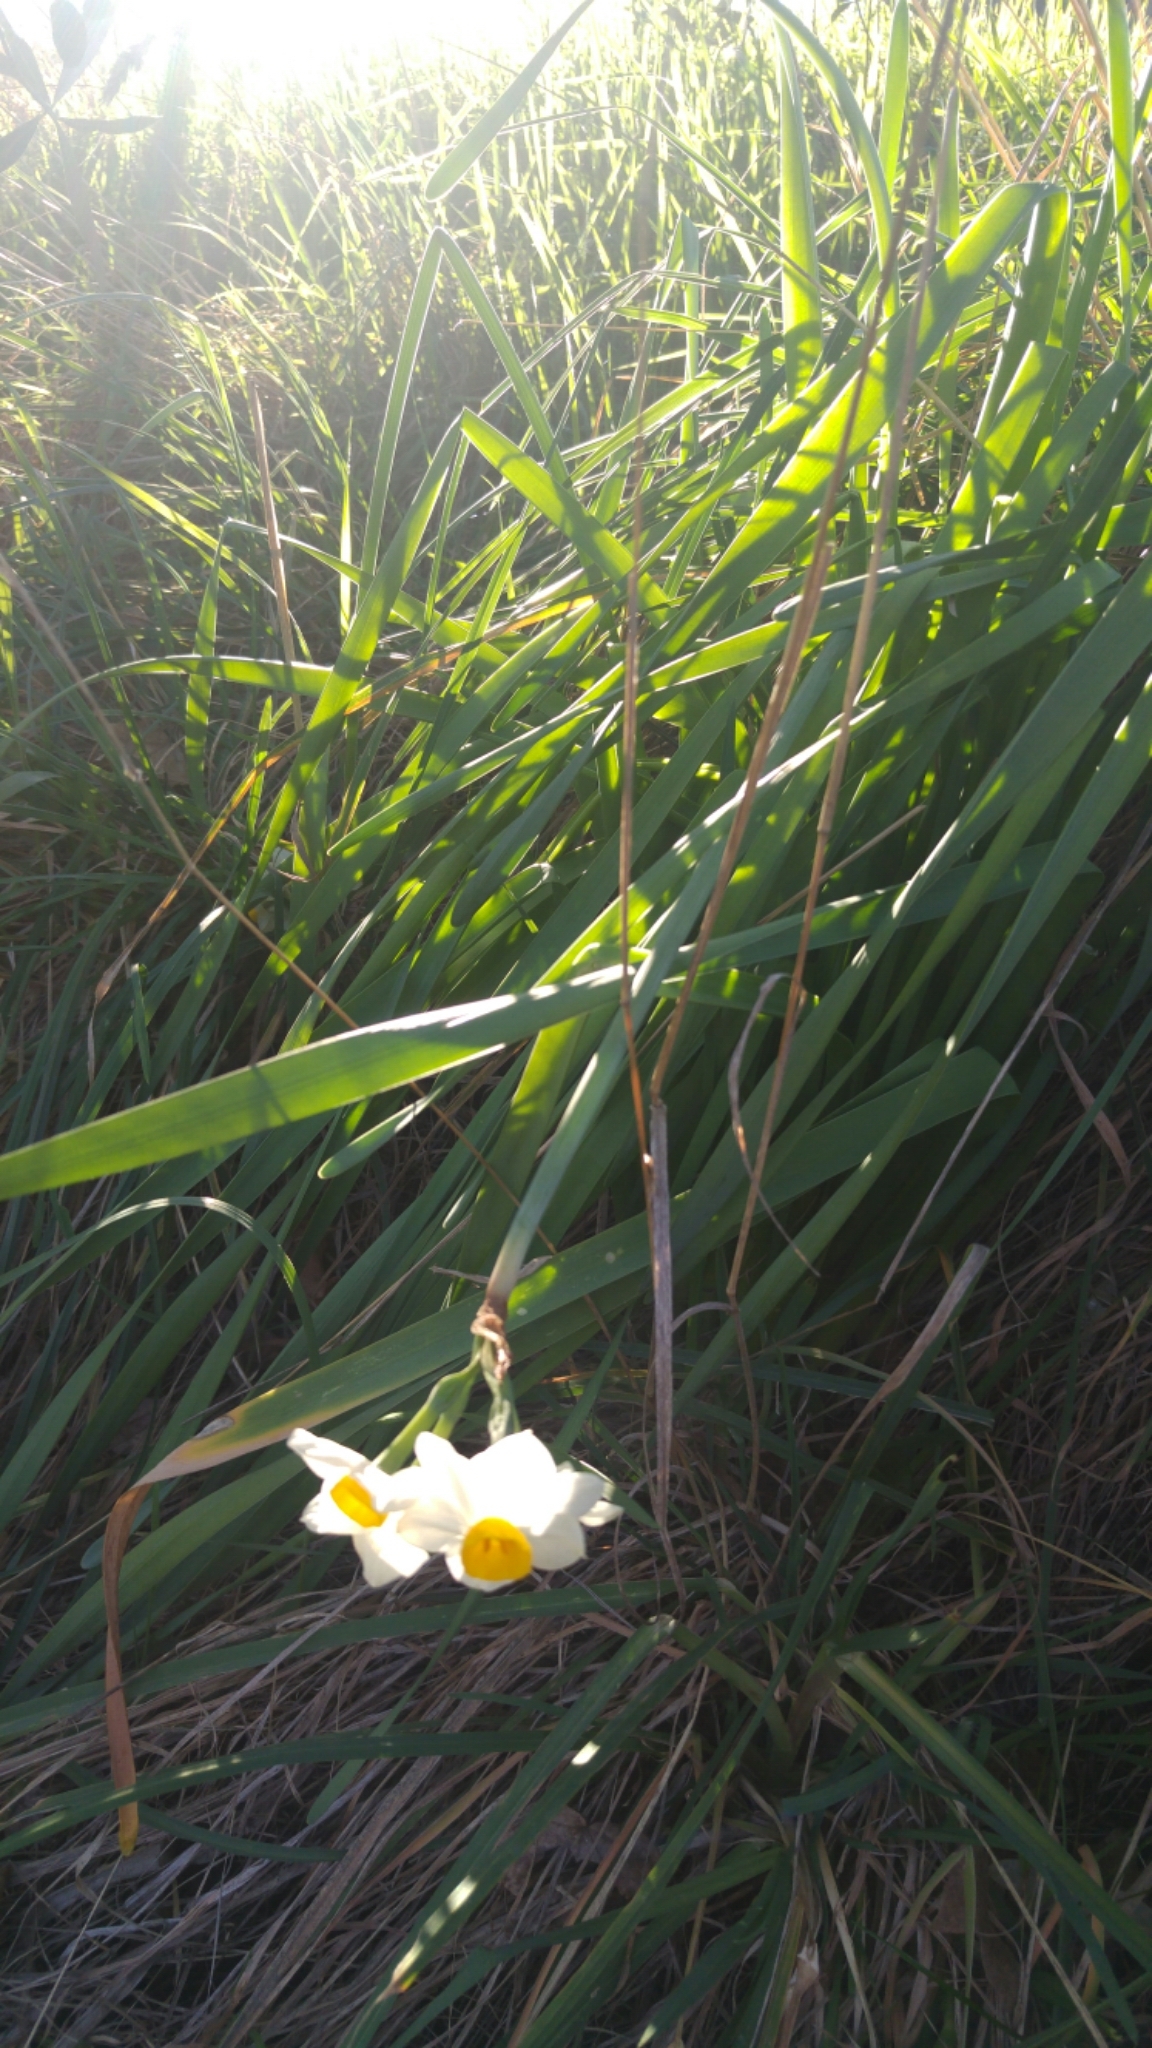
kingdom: Plantae
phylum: Tracheophyta
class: Liliopsida
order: Asparagales
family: Amaryllidaceae
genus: Narcissus
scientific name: Narcissus tazetta
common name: Bunch-flowered daffodil
